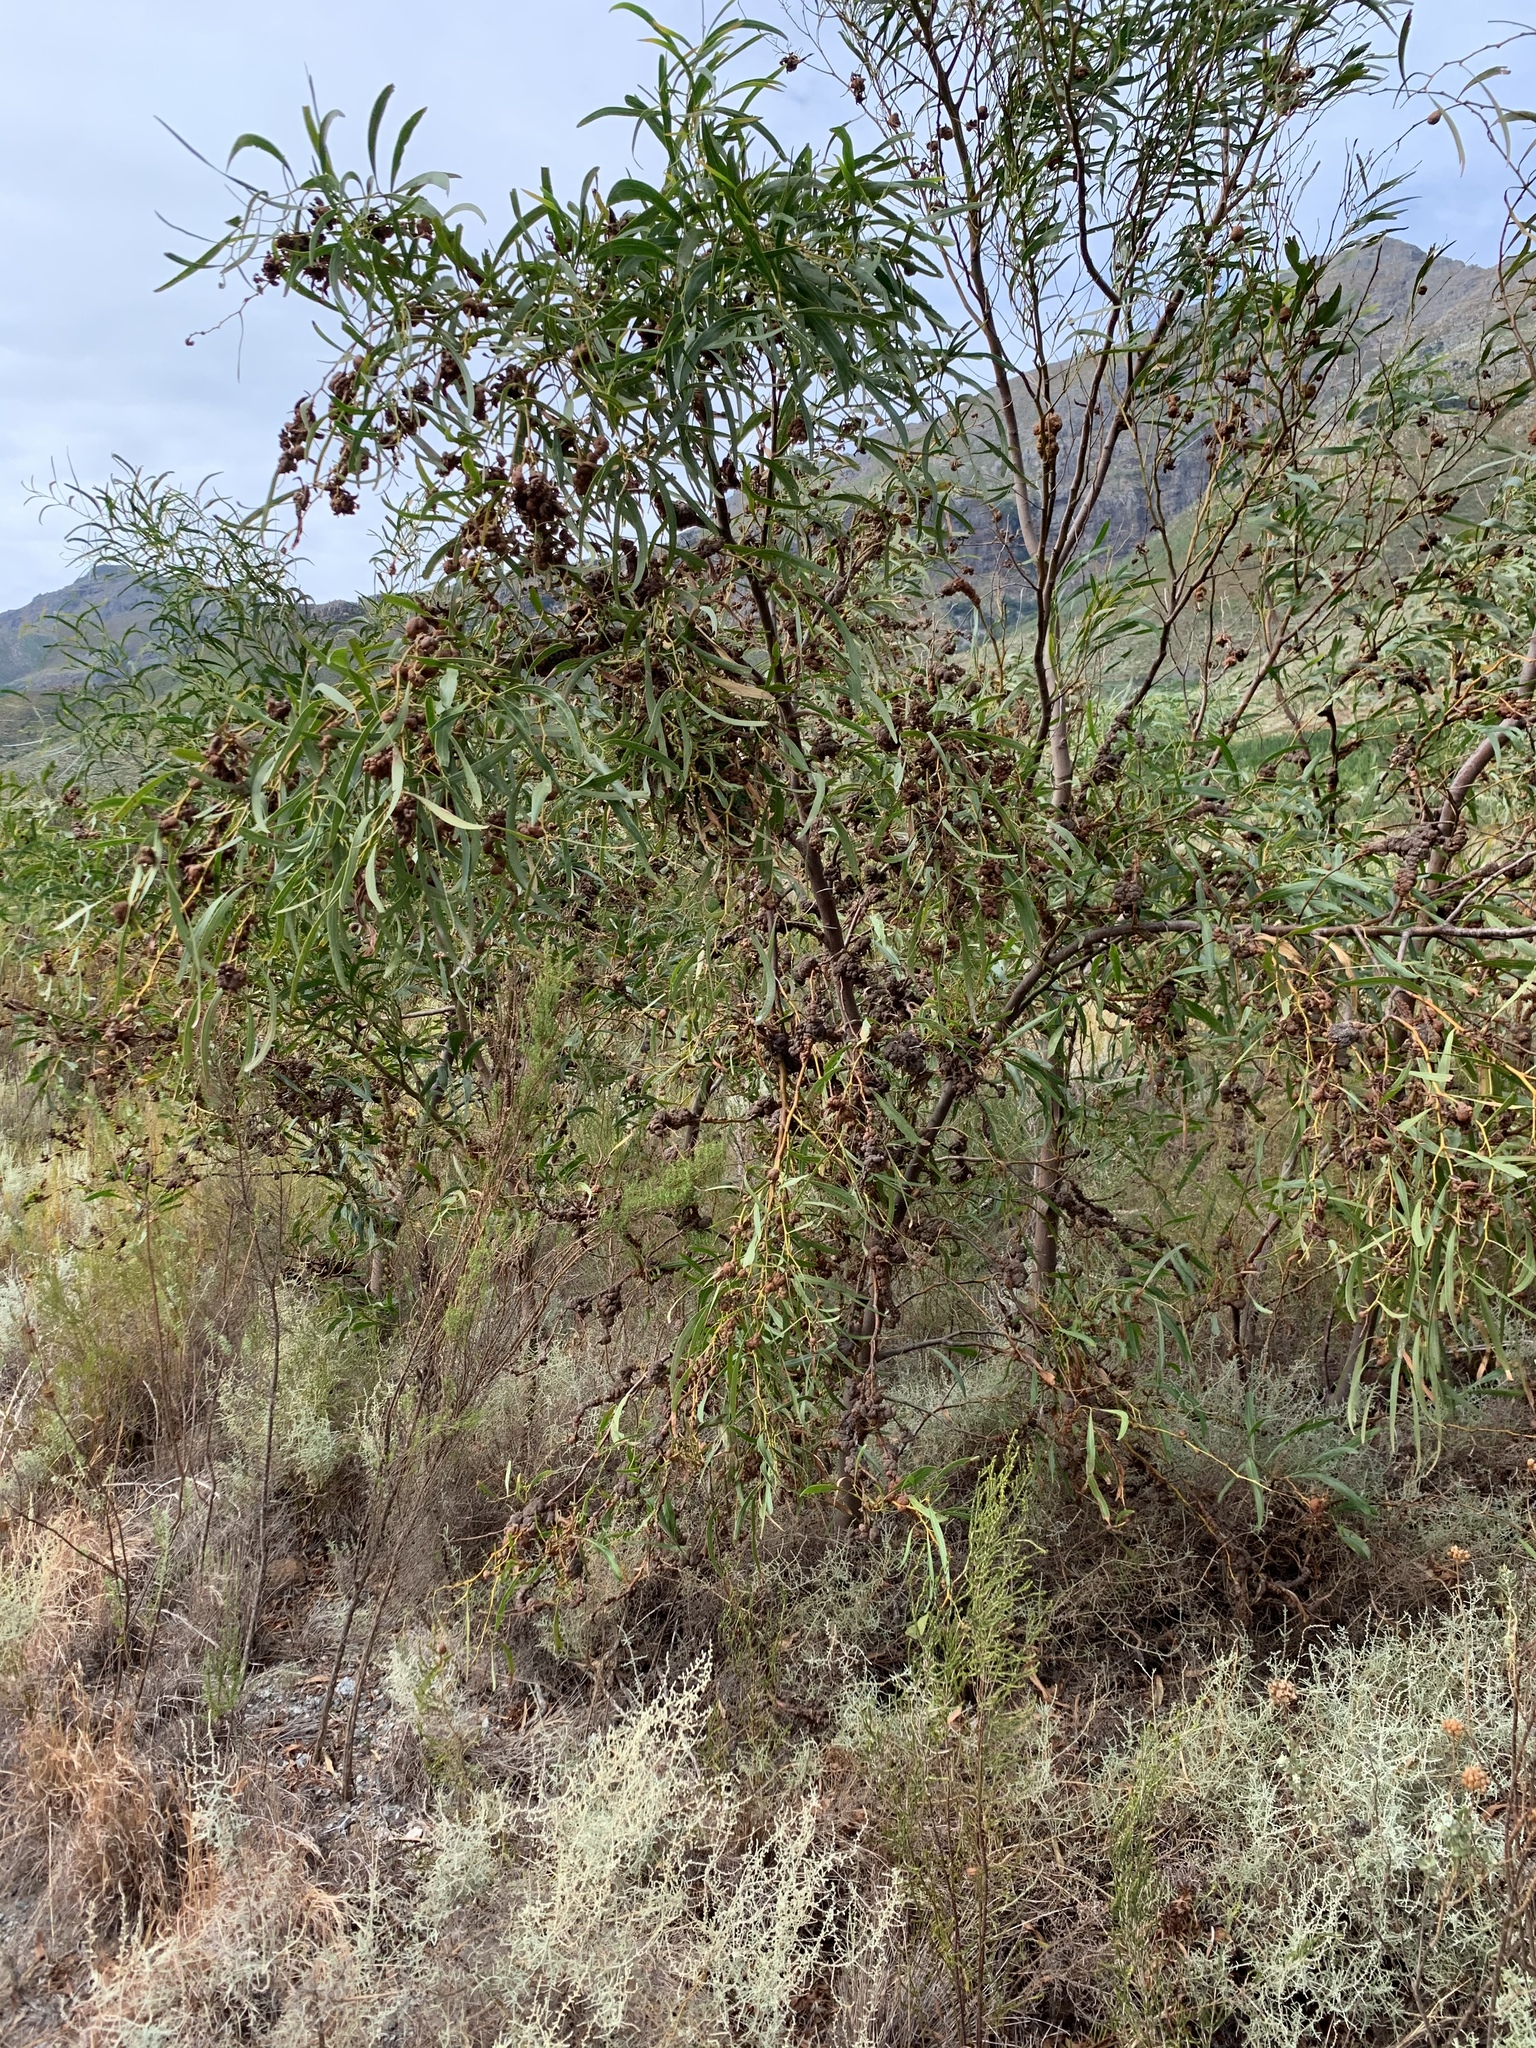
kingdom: Plantae
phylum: Tracheophyta
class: Magnoliopsida
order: Fabales
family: Fabaceae
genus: Acacia
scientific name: Acacia saligna
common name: Orange wattle
